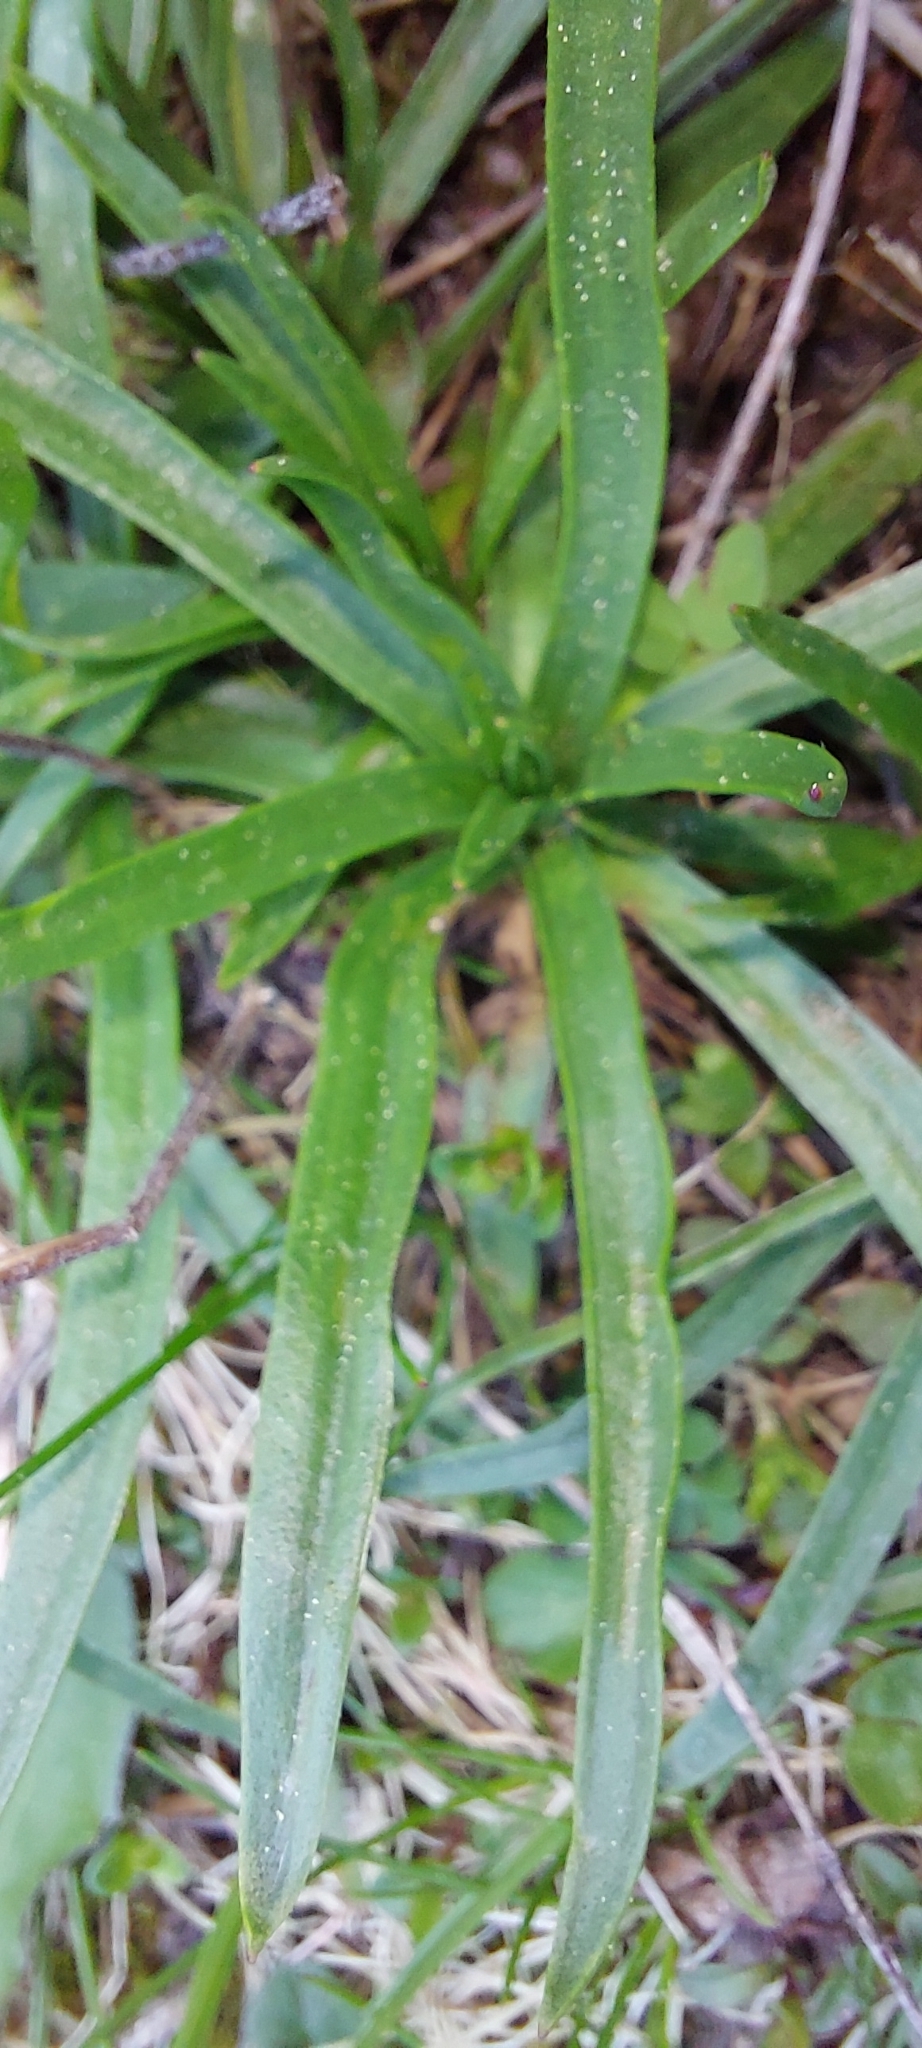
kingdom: Plantae
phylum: Tracheophyta
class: Magnoliopsida
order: Lamiales
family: Plantaginaceae
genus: Plantago
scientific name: Plantago alpina
